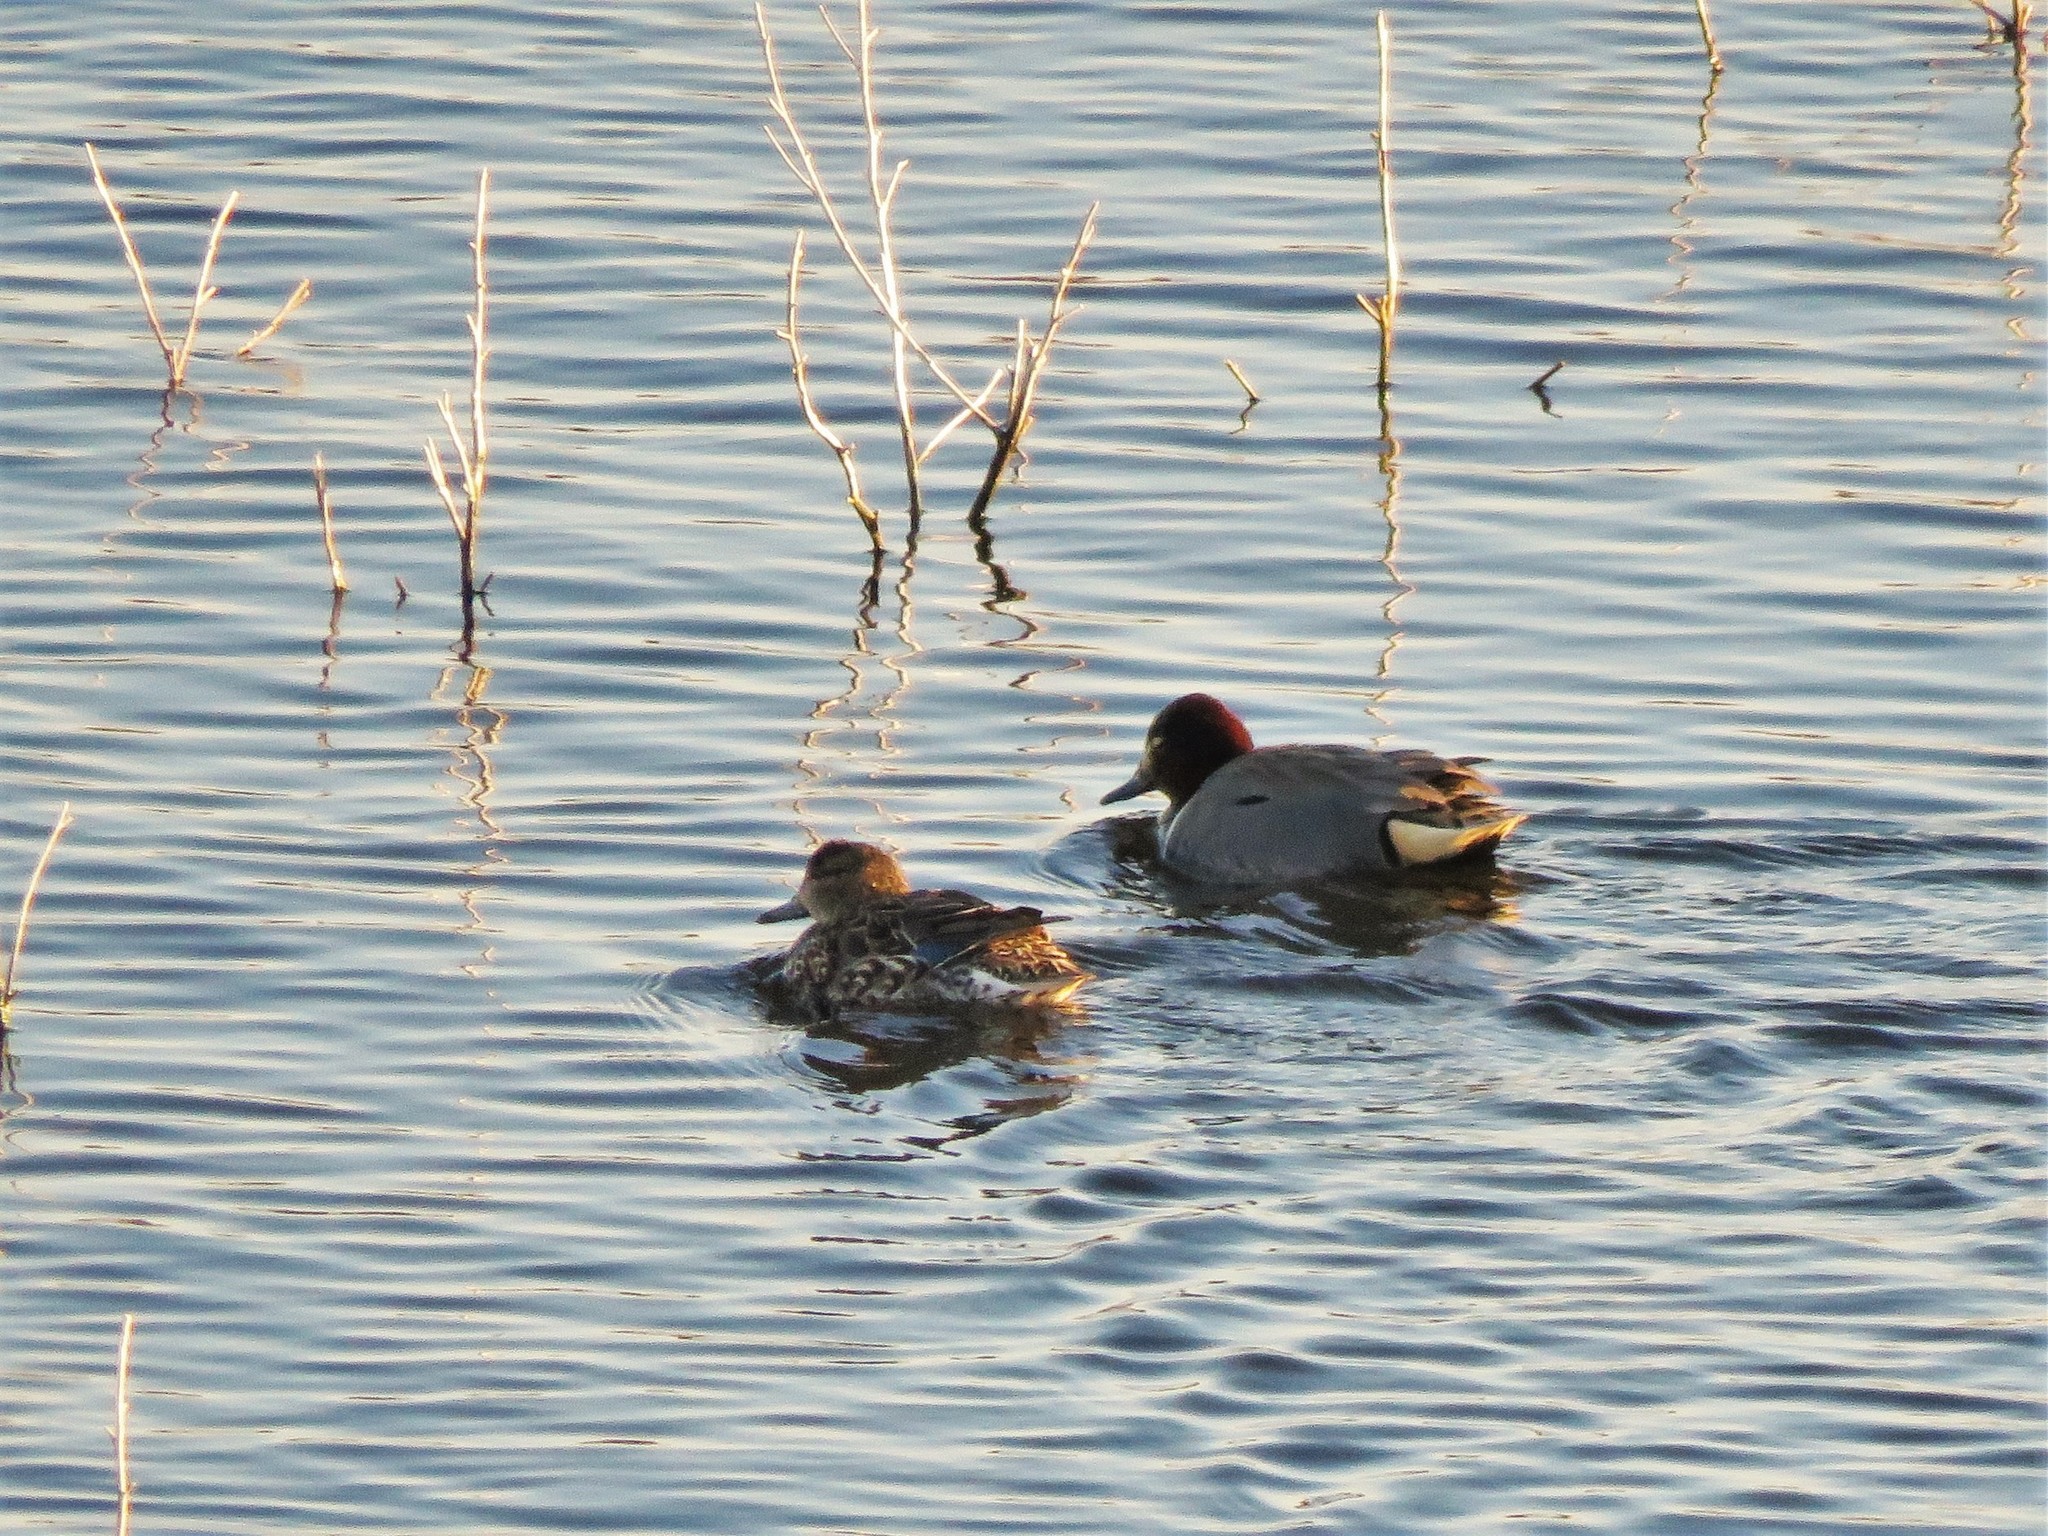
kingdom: Animalia
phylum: Chordata
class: Aves
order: Anseriformes
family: Anatidae
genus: Anas
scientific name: Anas crecca
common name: Eurasian teal
